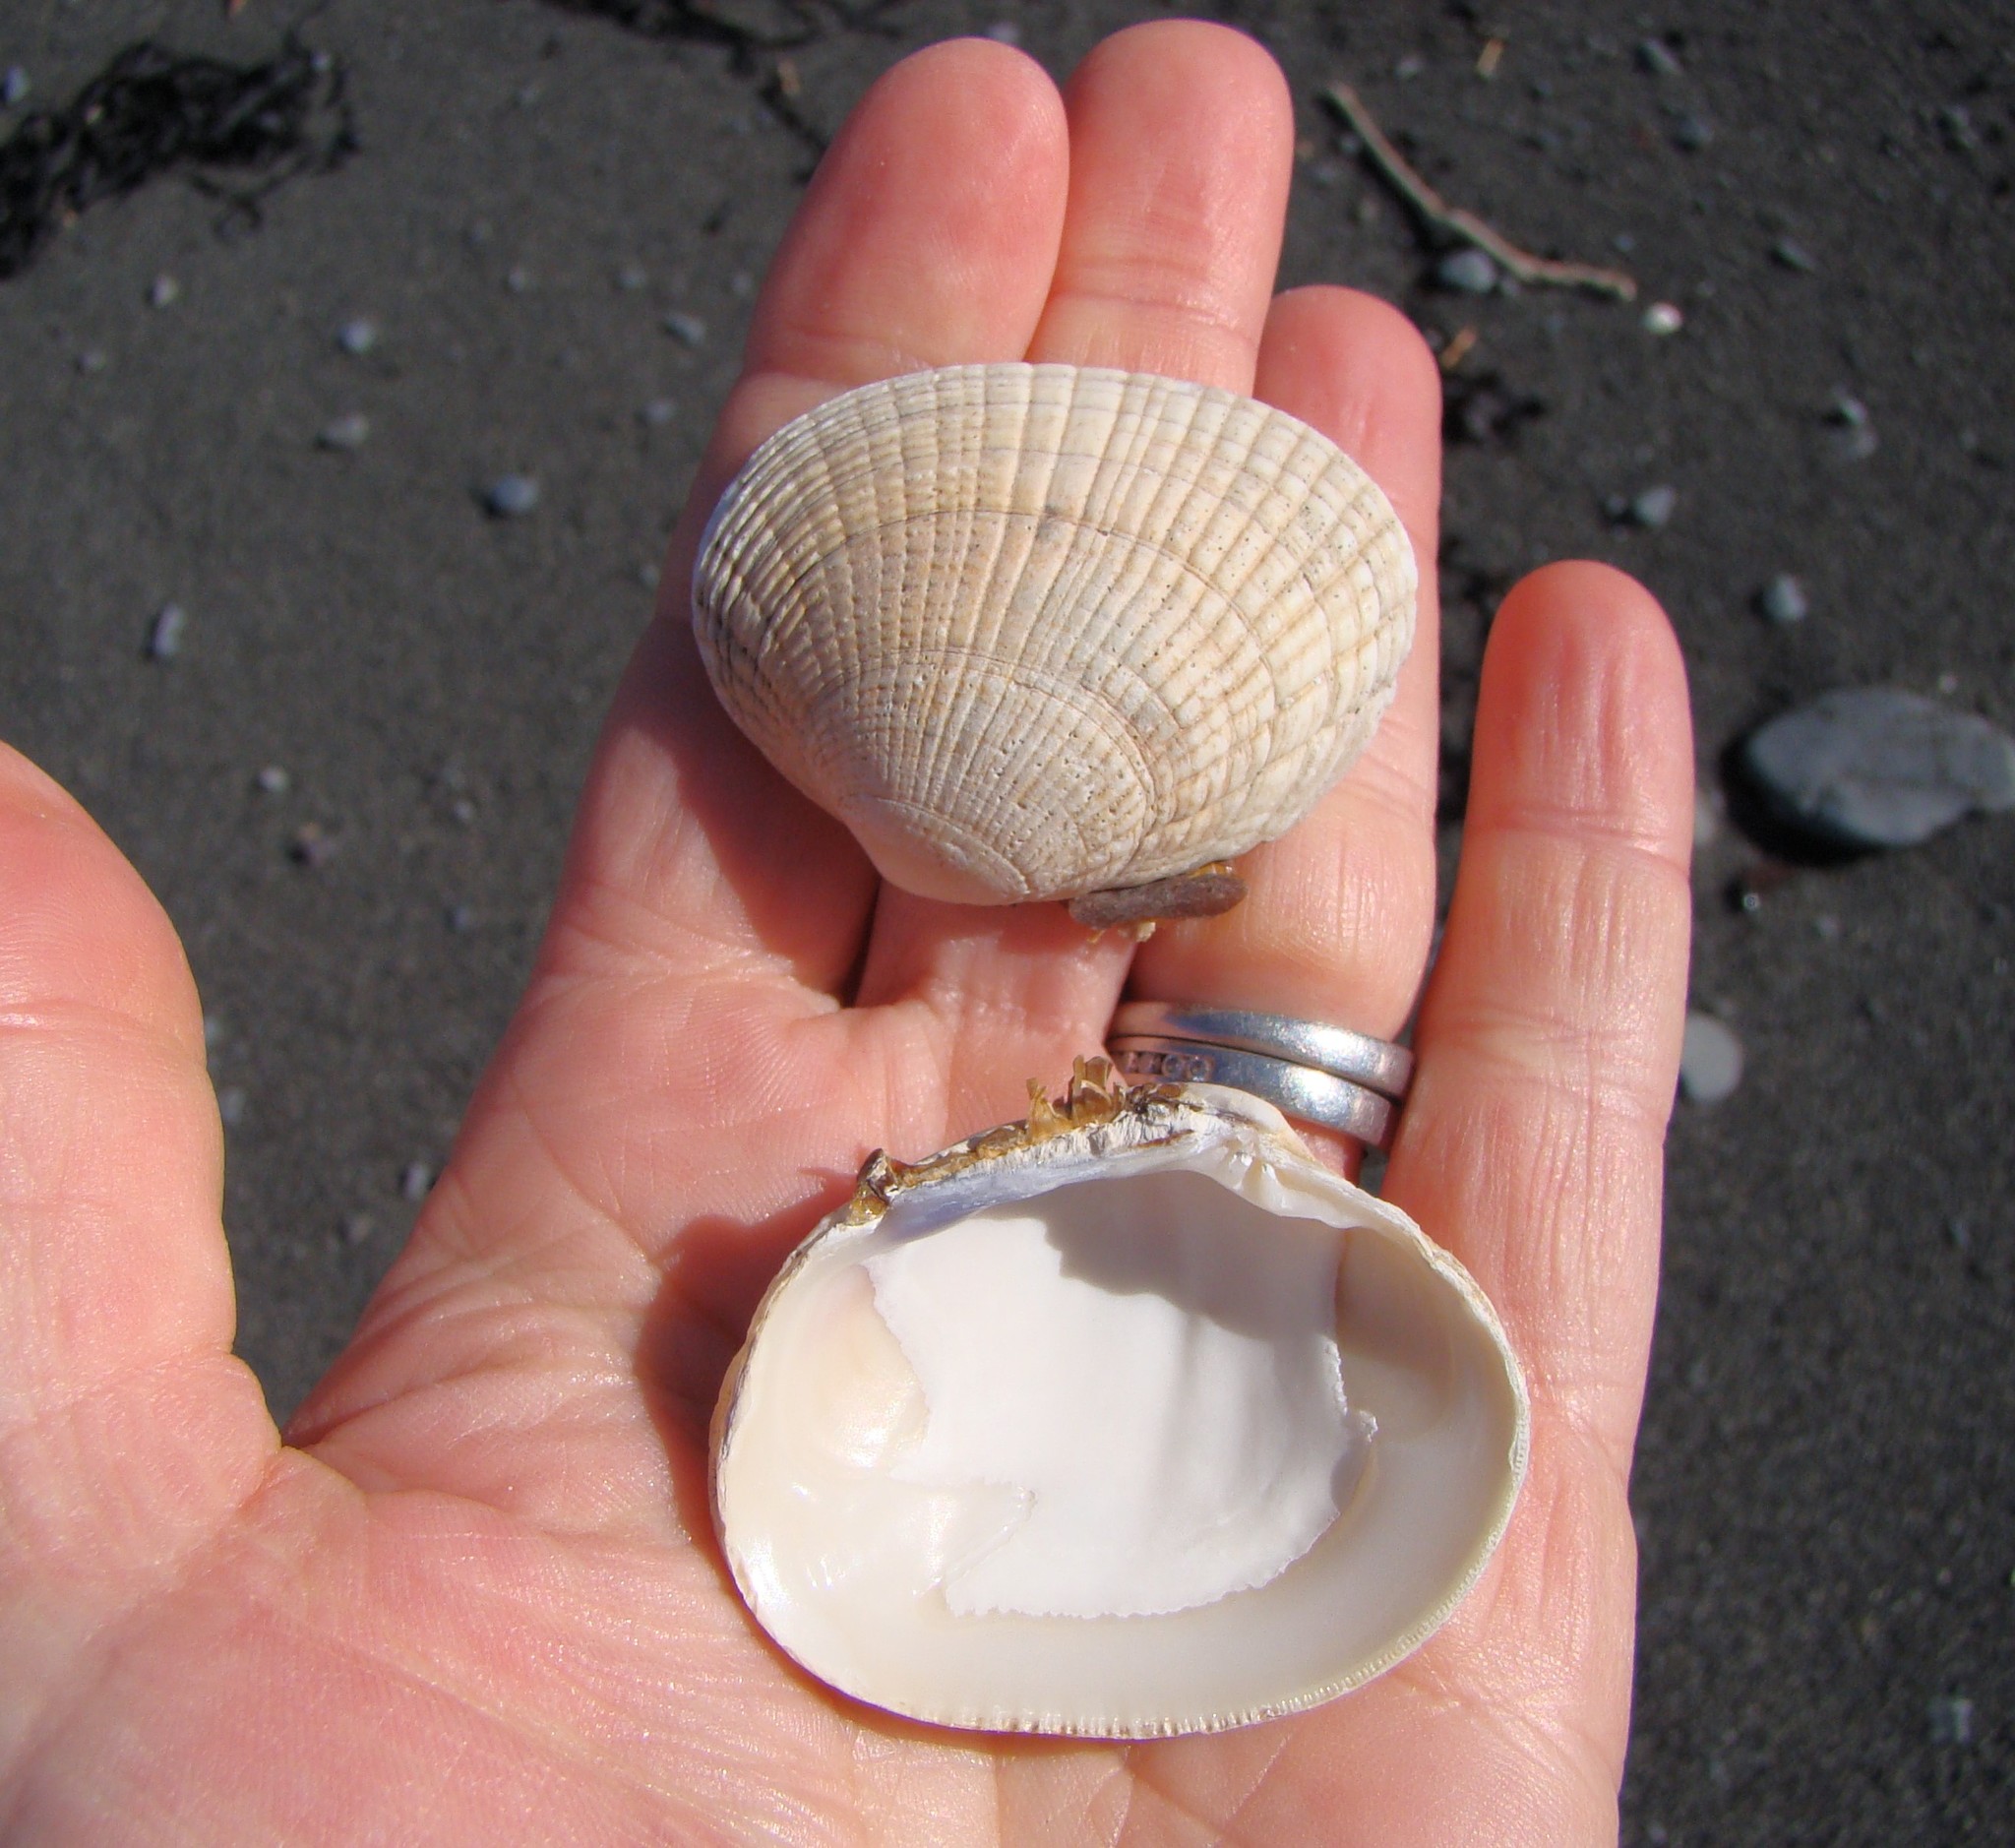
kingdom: Animalia
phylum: Mollusca
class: Bivalvia
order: Venerida
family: Veneridae
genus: Leukoma
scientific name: Leukoma crassicosta
